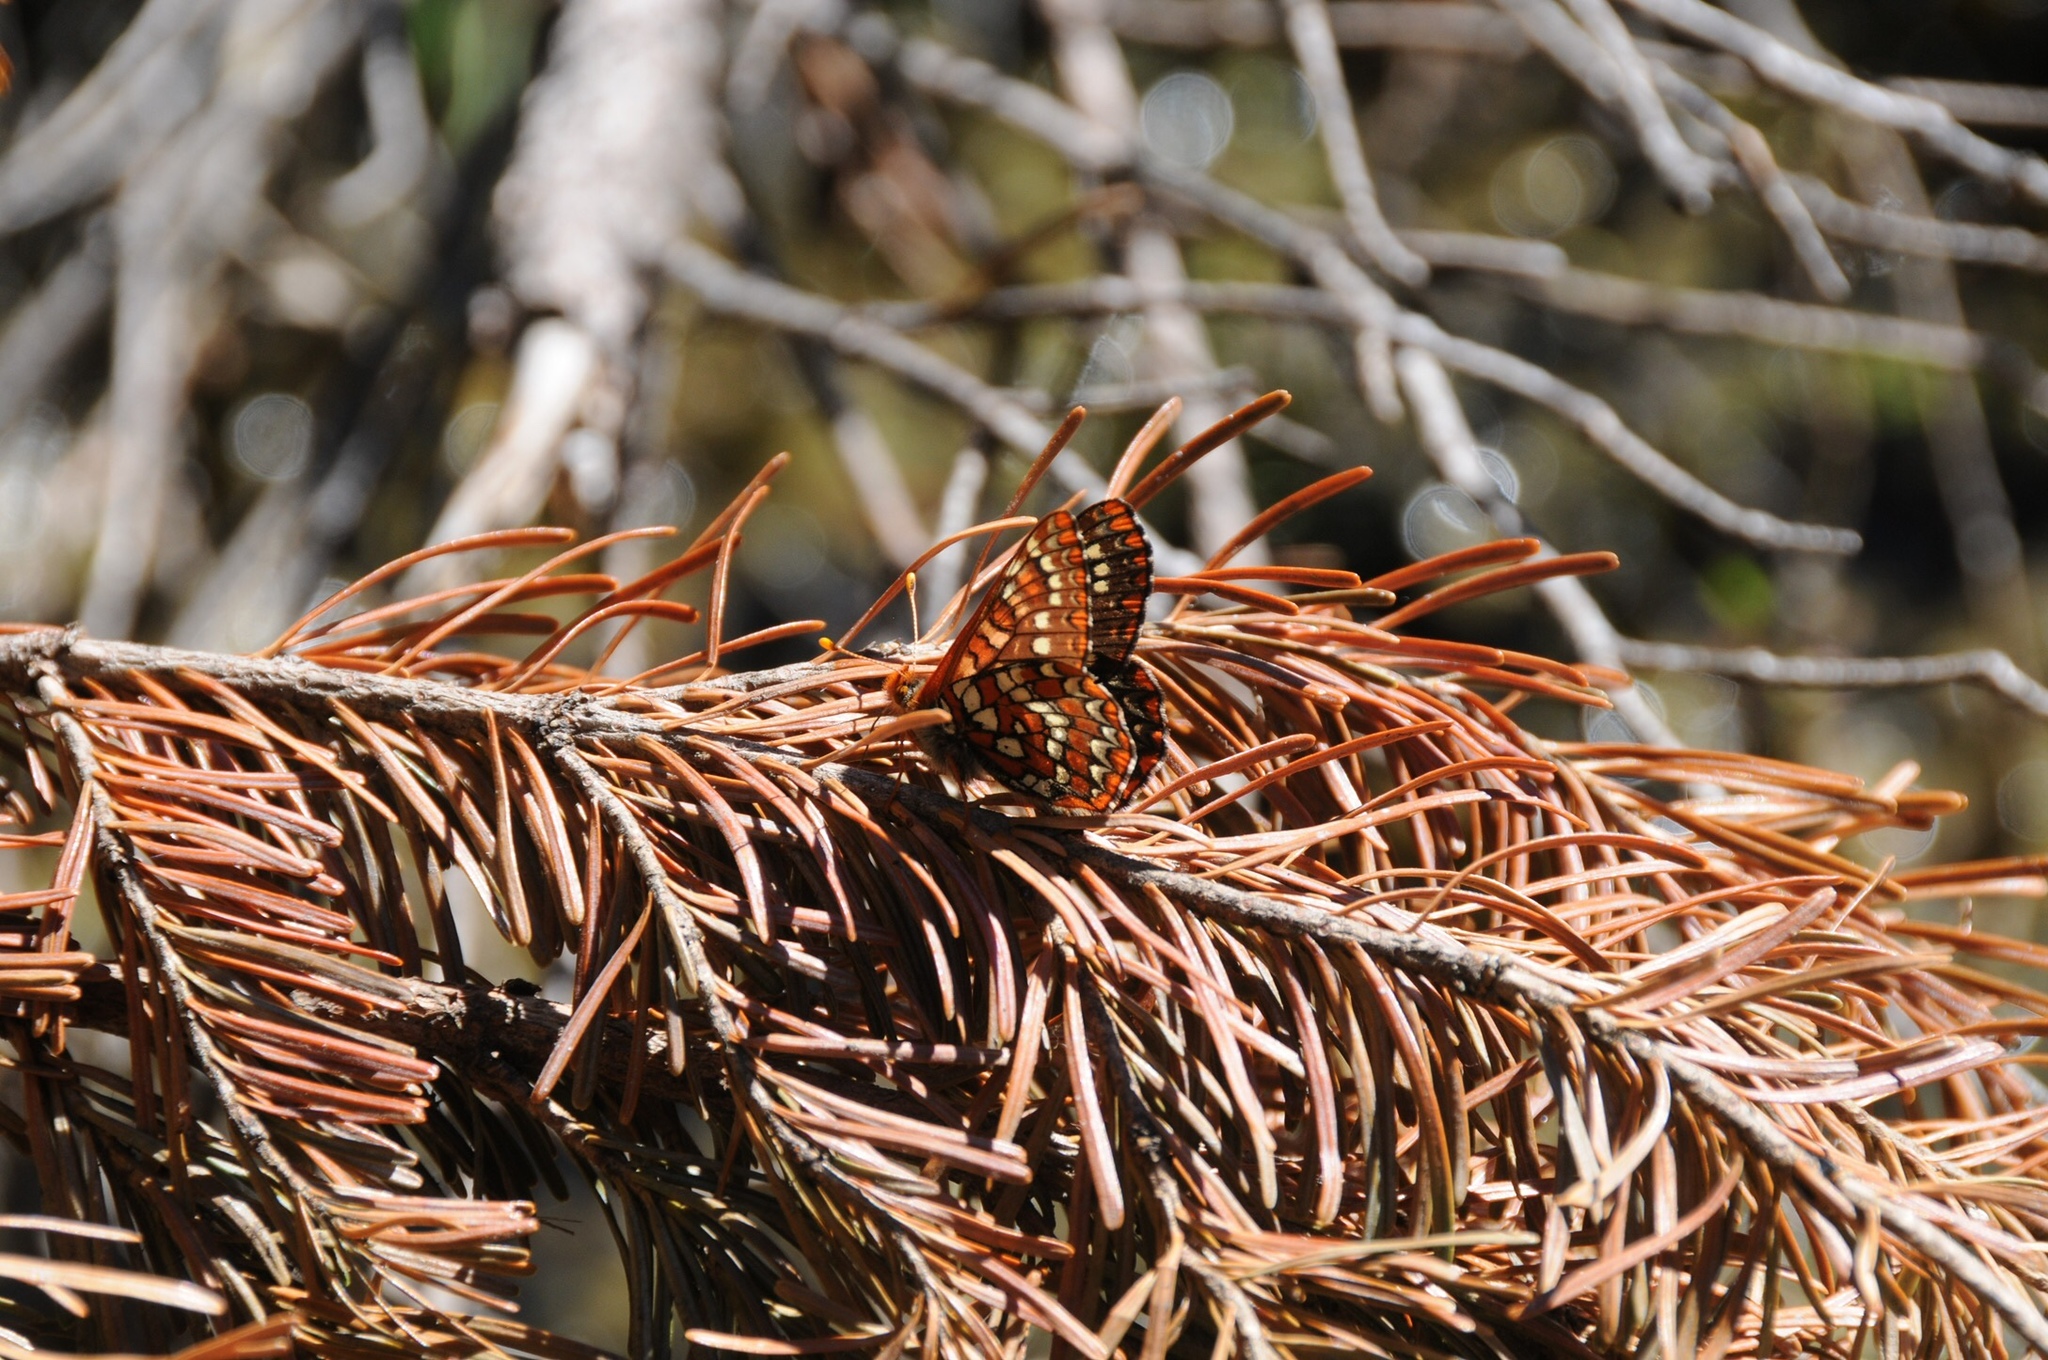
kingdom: Animalia
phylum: Arthropoda
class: Insecta
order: Lepidoptera
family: Nymphalidae
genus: Occidryas
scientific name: Occidryas colon
